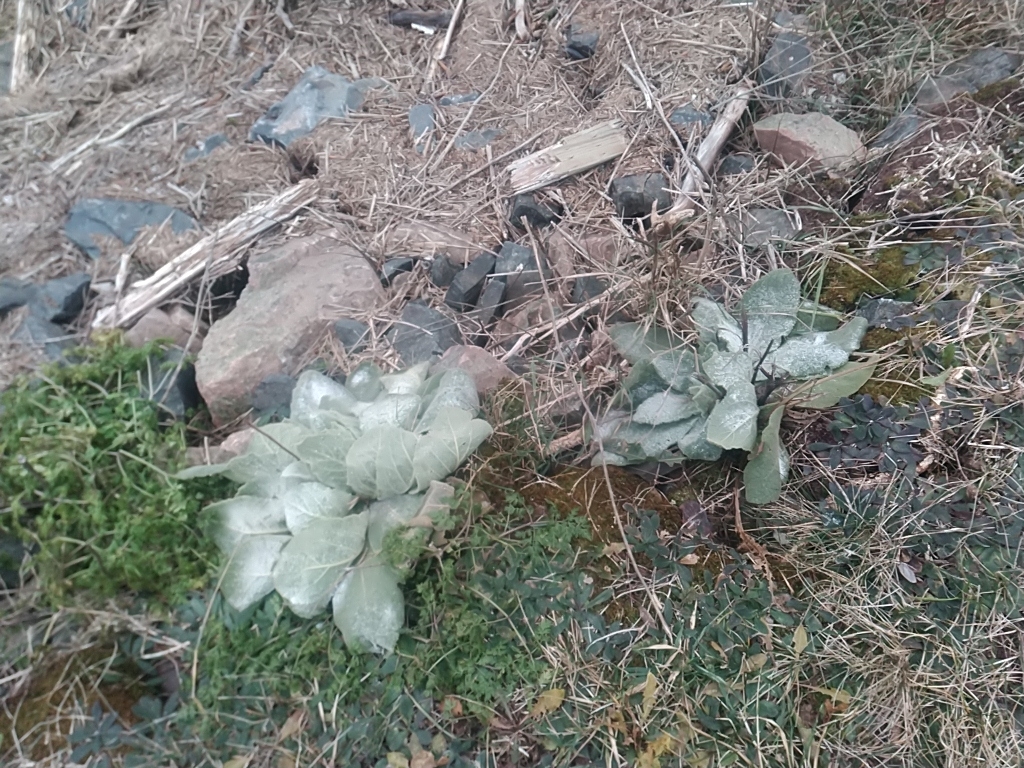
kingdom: Plantae
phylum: Tracheophyta
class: Magnoliopsida
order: Lamiales
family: Scrophulariaceae
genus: Verbascum
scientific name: Verbascum thapsus
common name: Common mullein
